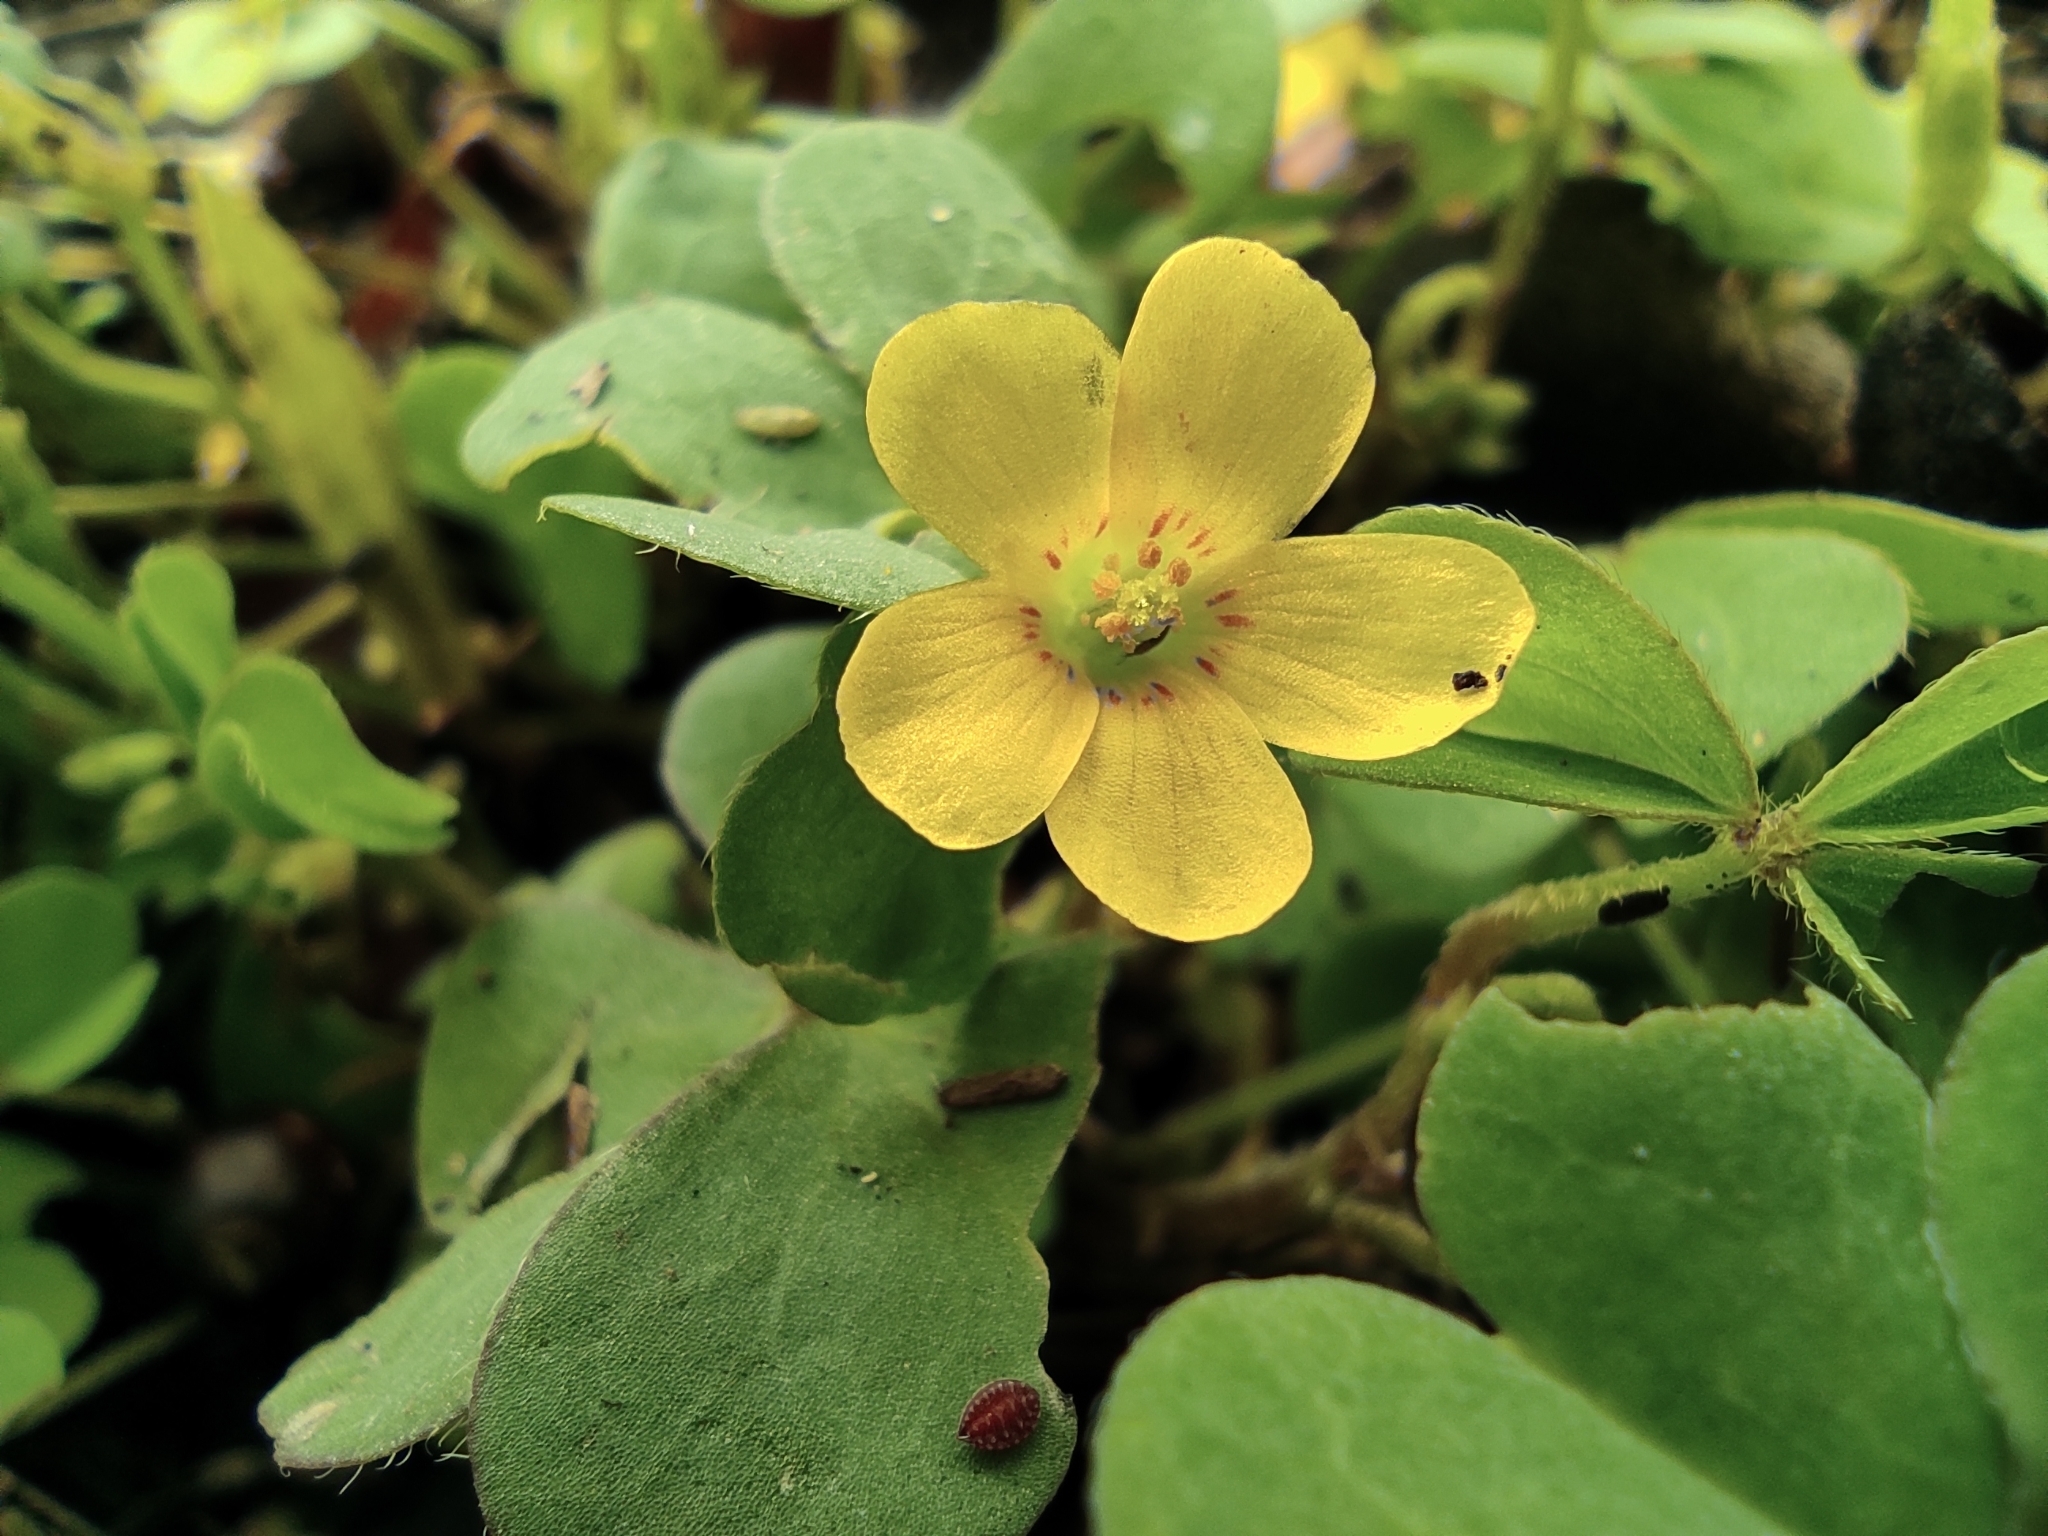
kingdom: Plantae
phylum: Tracheophyta
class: Magnoliopsida
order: Oxalidales
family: Oxalidaceae
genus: Oxalis
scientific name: Oxalis corniculata
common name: Procumbent yellow-sorrel
